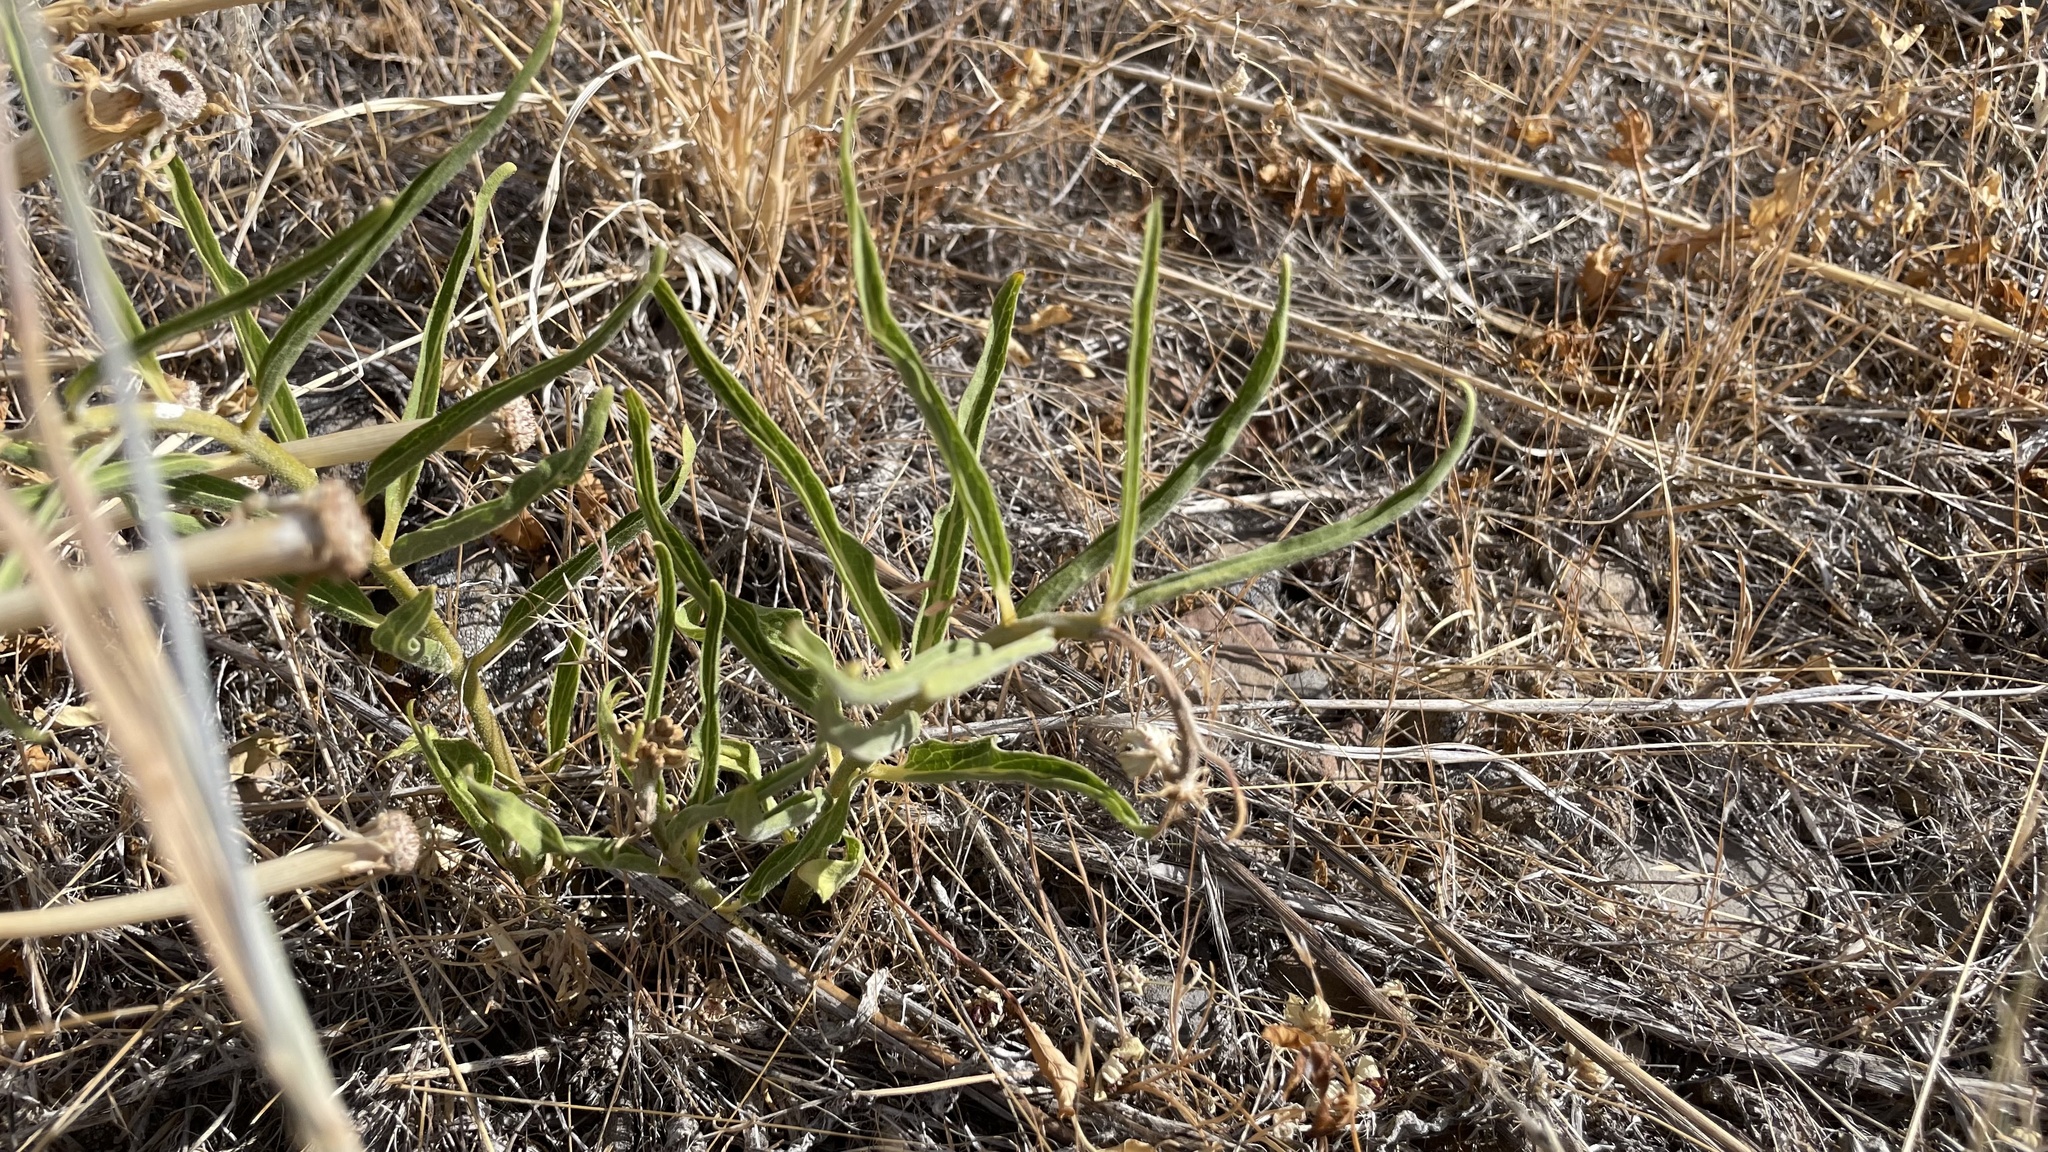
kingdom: Plantae
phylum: Tracheophyta
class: Magnoliopsida
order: Gentianales
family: Apocynaceae
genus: Asclepias
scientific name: Asclepias asperula
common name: Antelope horns
